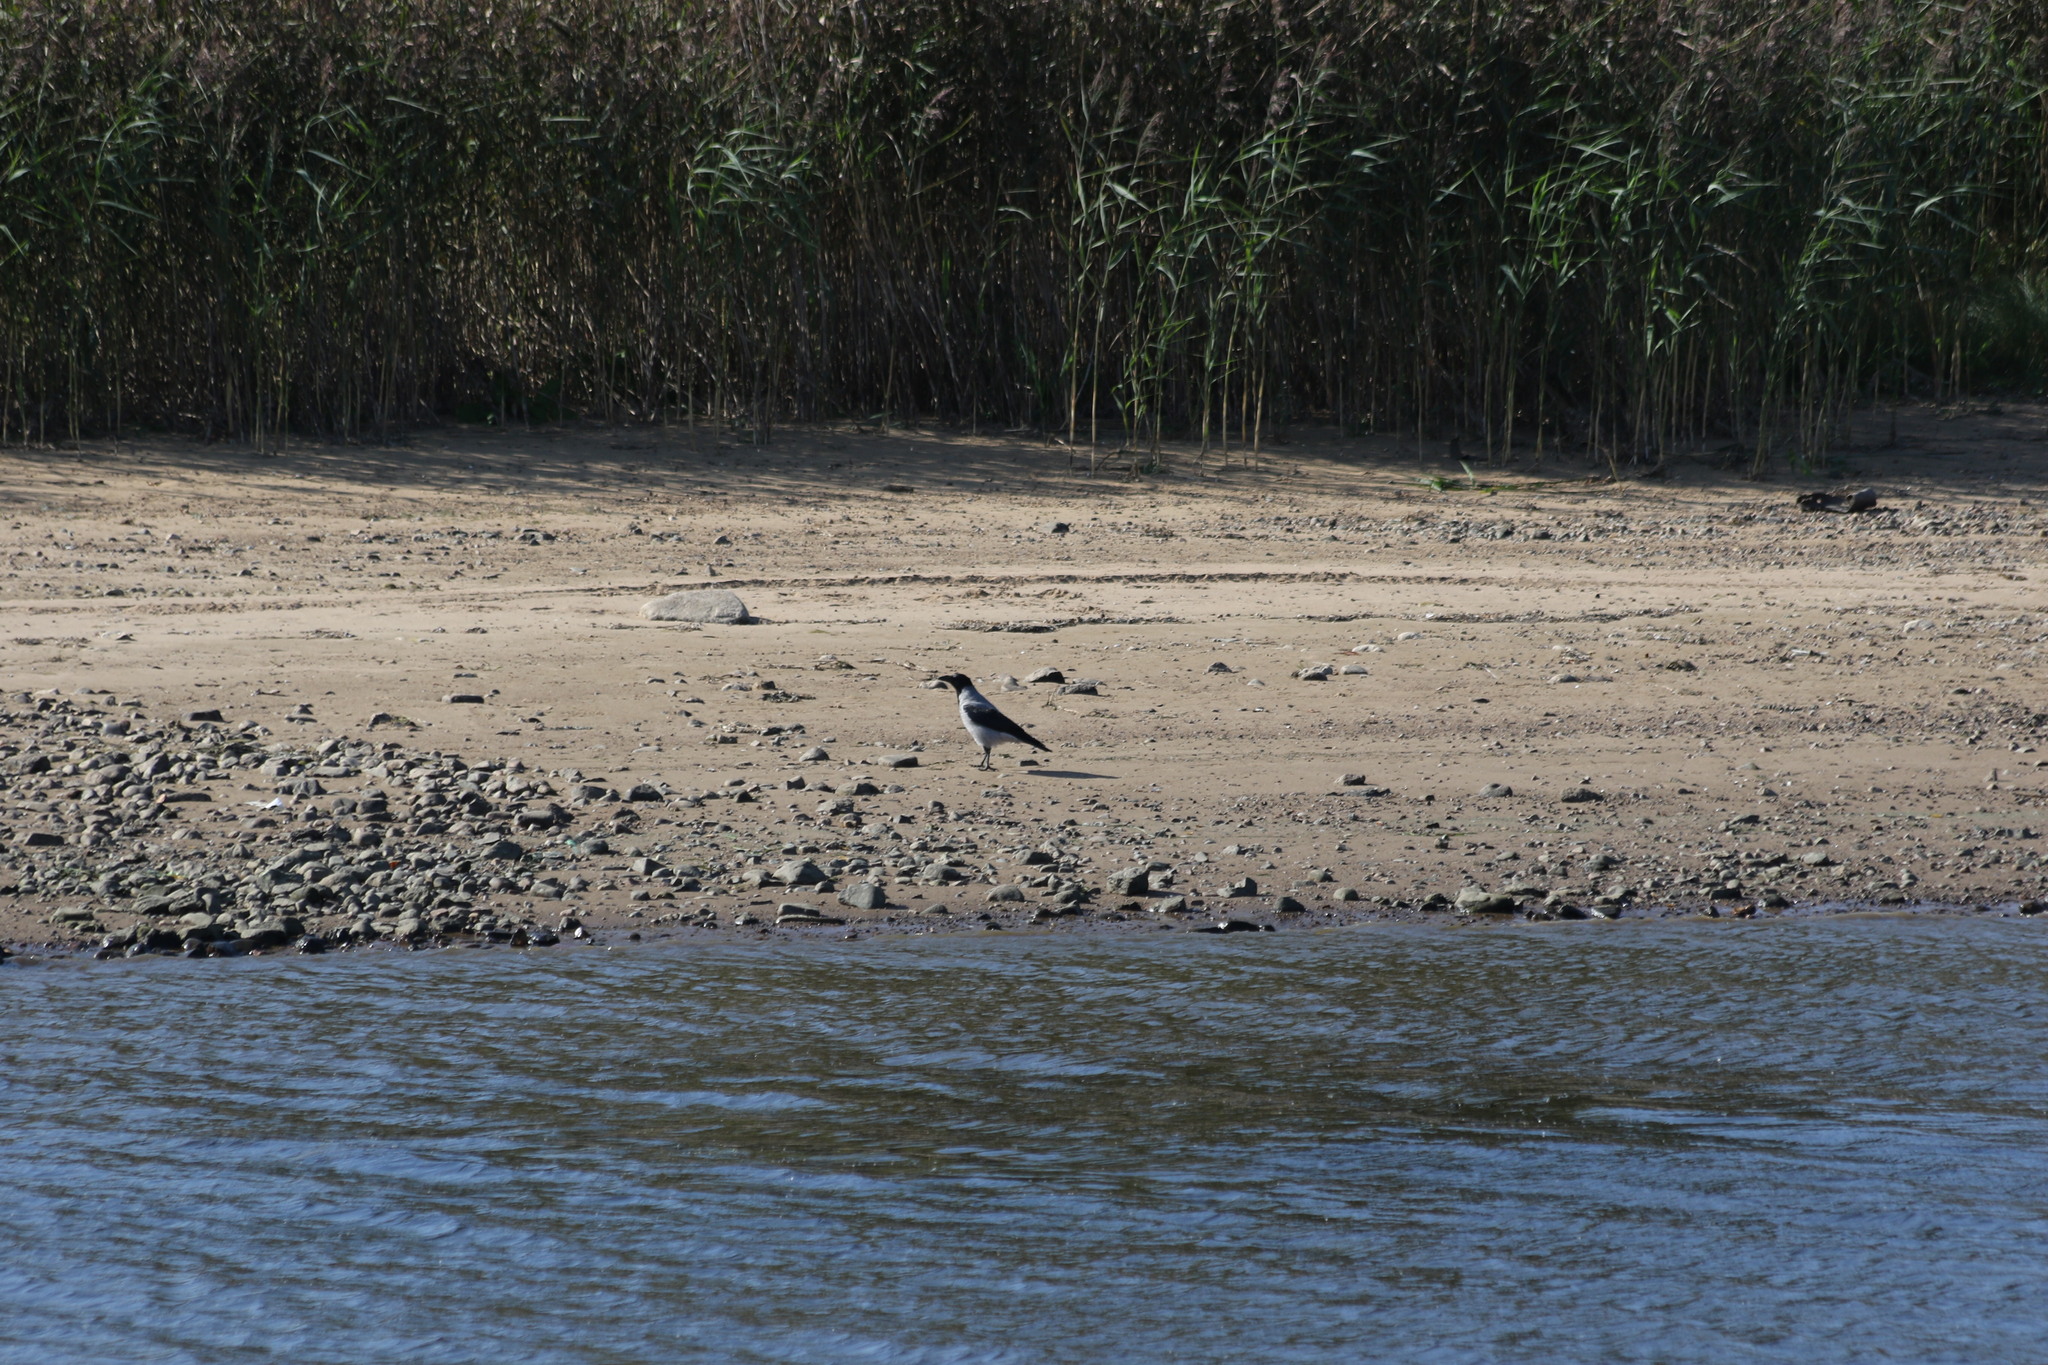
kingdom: Animalia
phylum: Chordata
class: Aves
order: Passeriformes
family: Corvidae
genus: Corvus
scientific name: Corvus cornix
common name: Hooded crow
